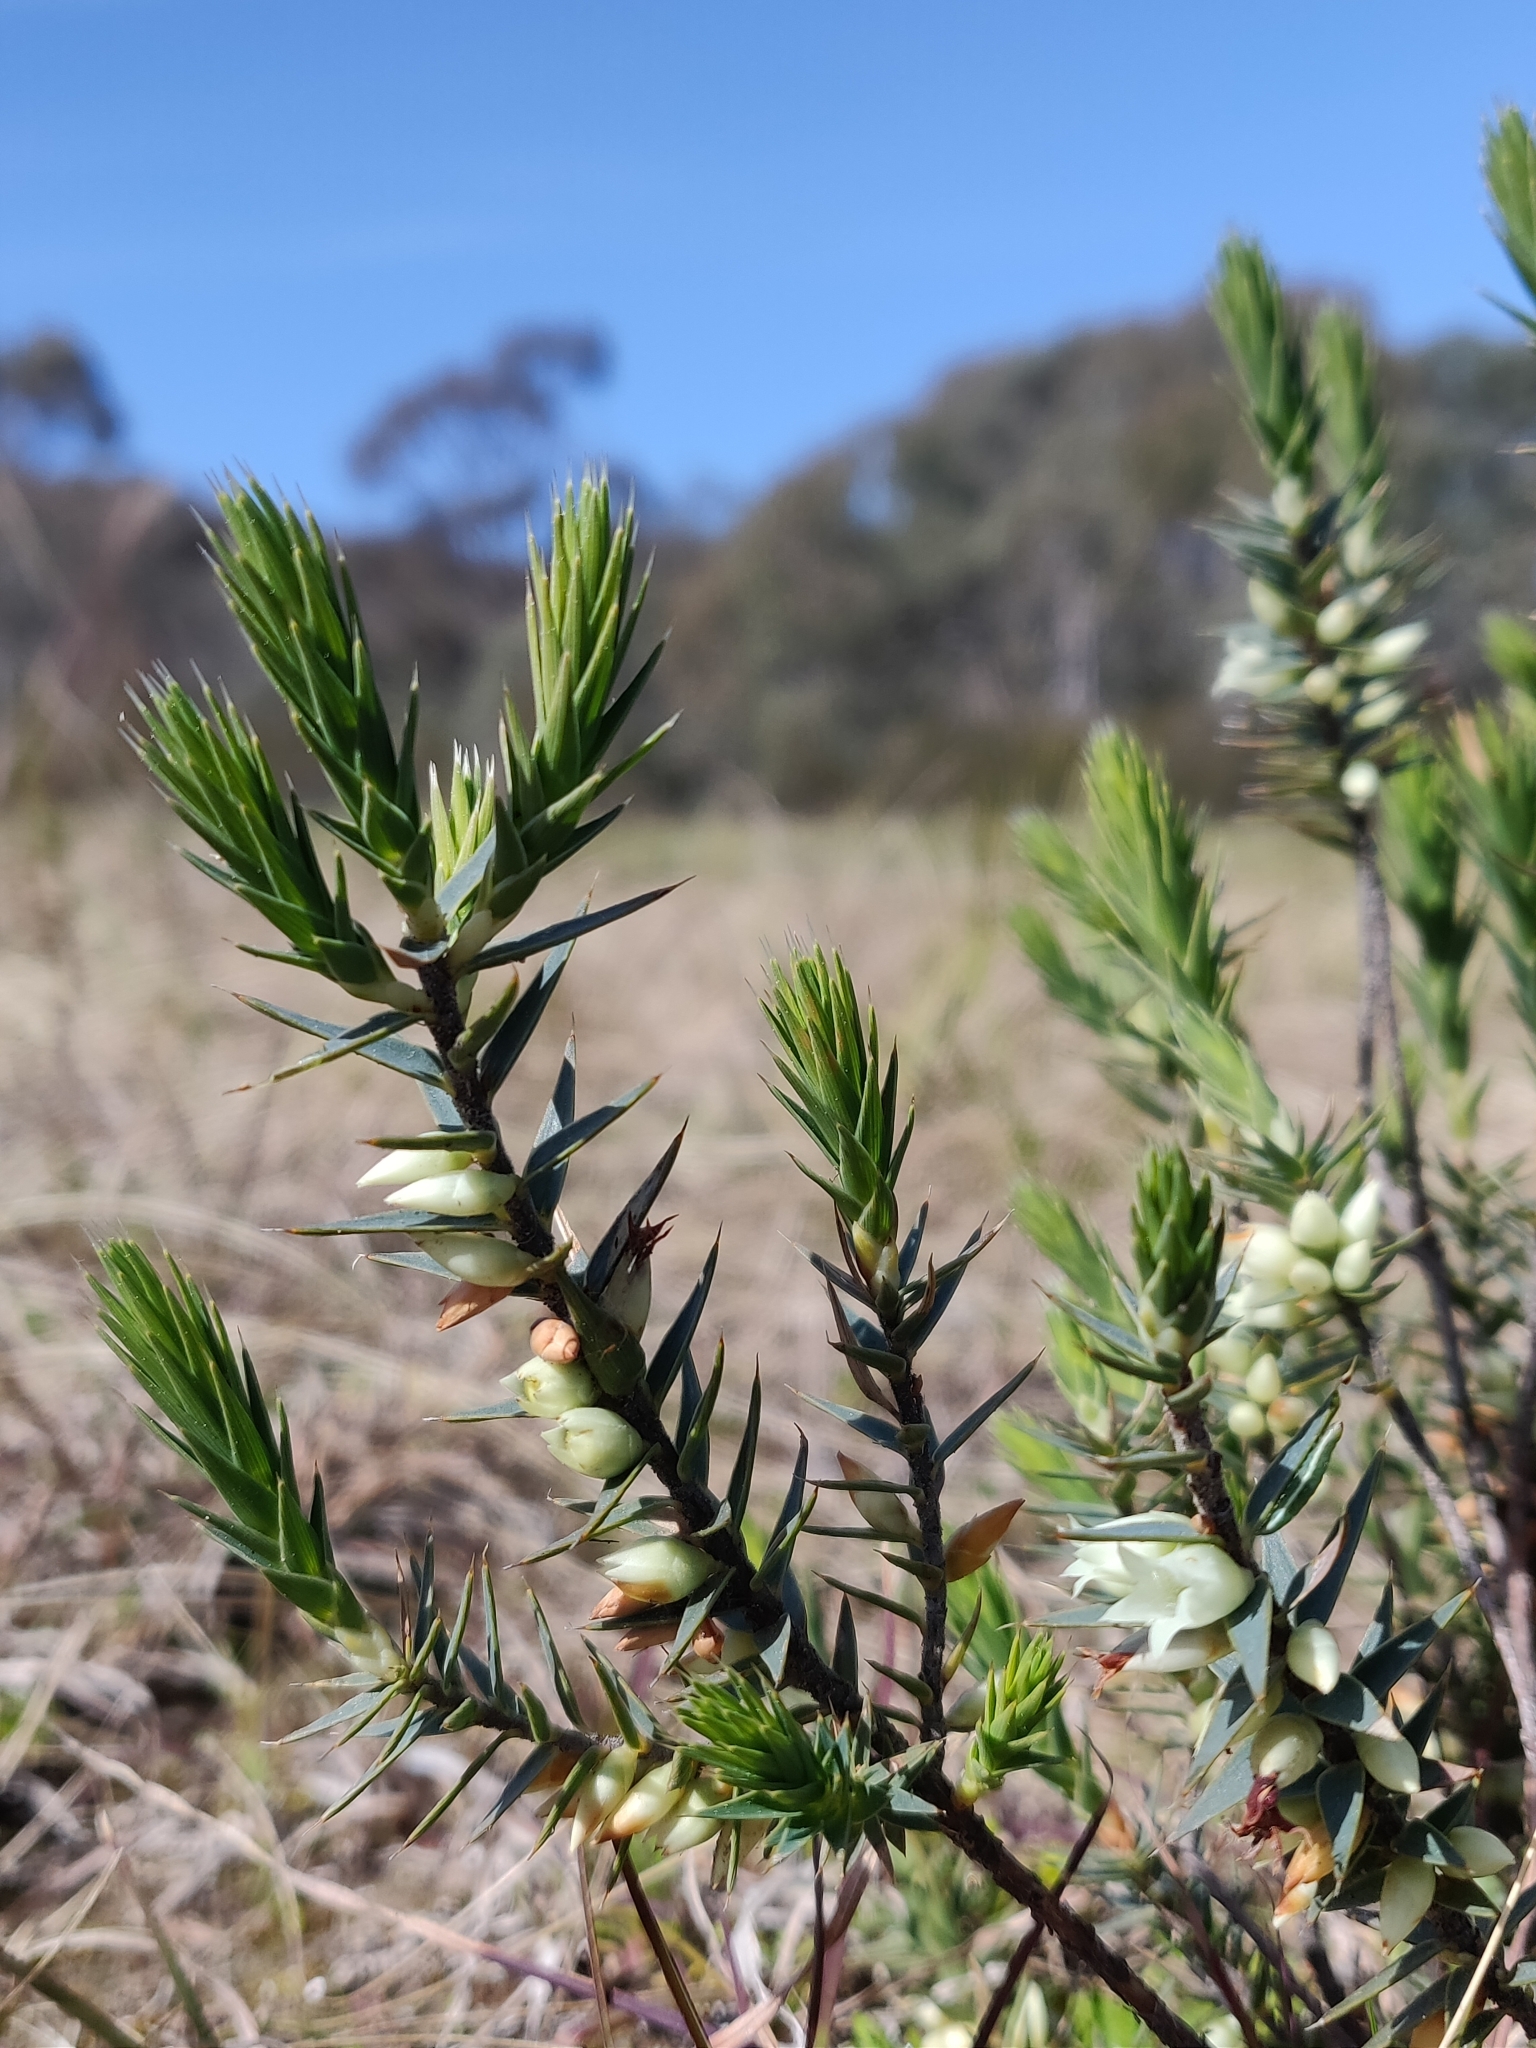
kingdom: Plantae
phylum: Tracheophyta
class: Magnoliopsida
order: Ericales
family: Ericaceae
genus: Melichrus
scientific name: Melichrus urceolatus
